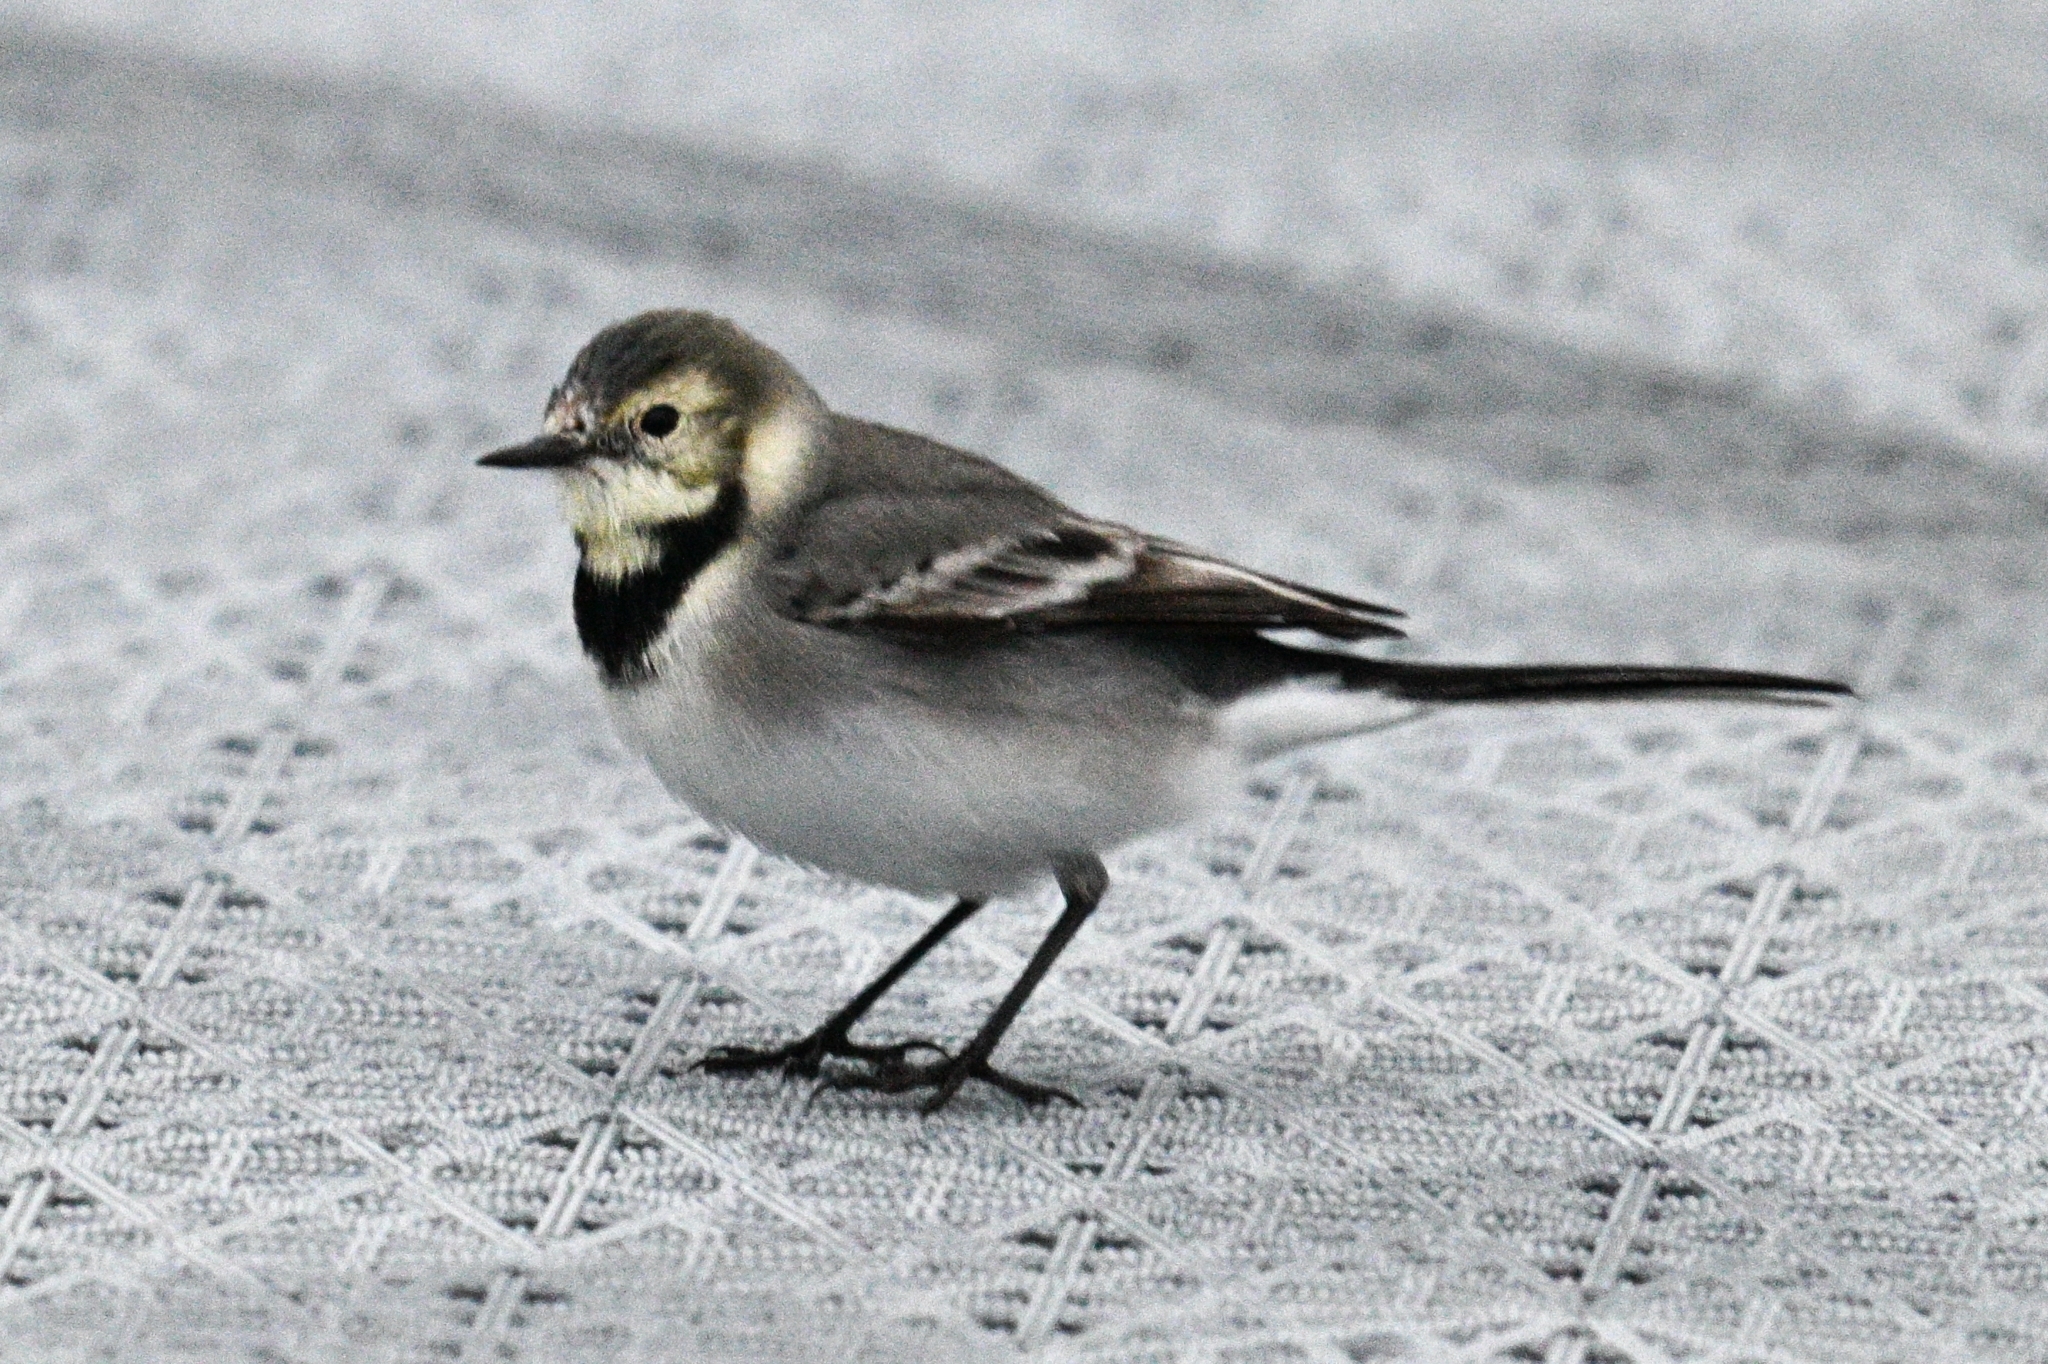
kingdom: Animalia
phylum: Chordata
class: Aves
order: Passeriformes
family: Motacillidae
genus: Motacilla
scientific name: Motacilla alba
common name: White wagtail
